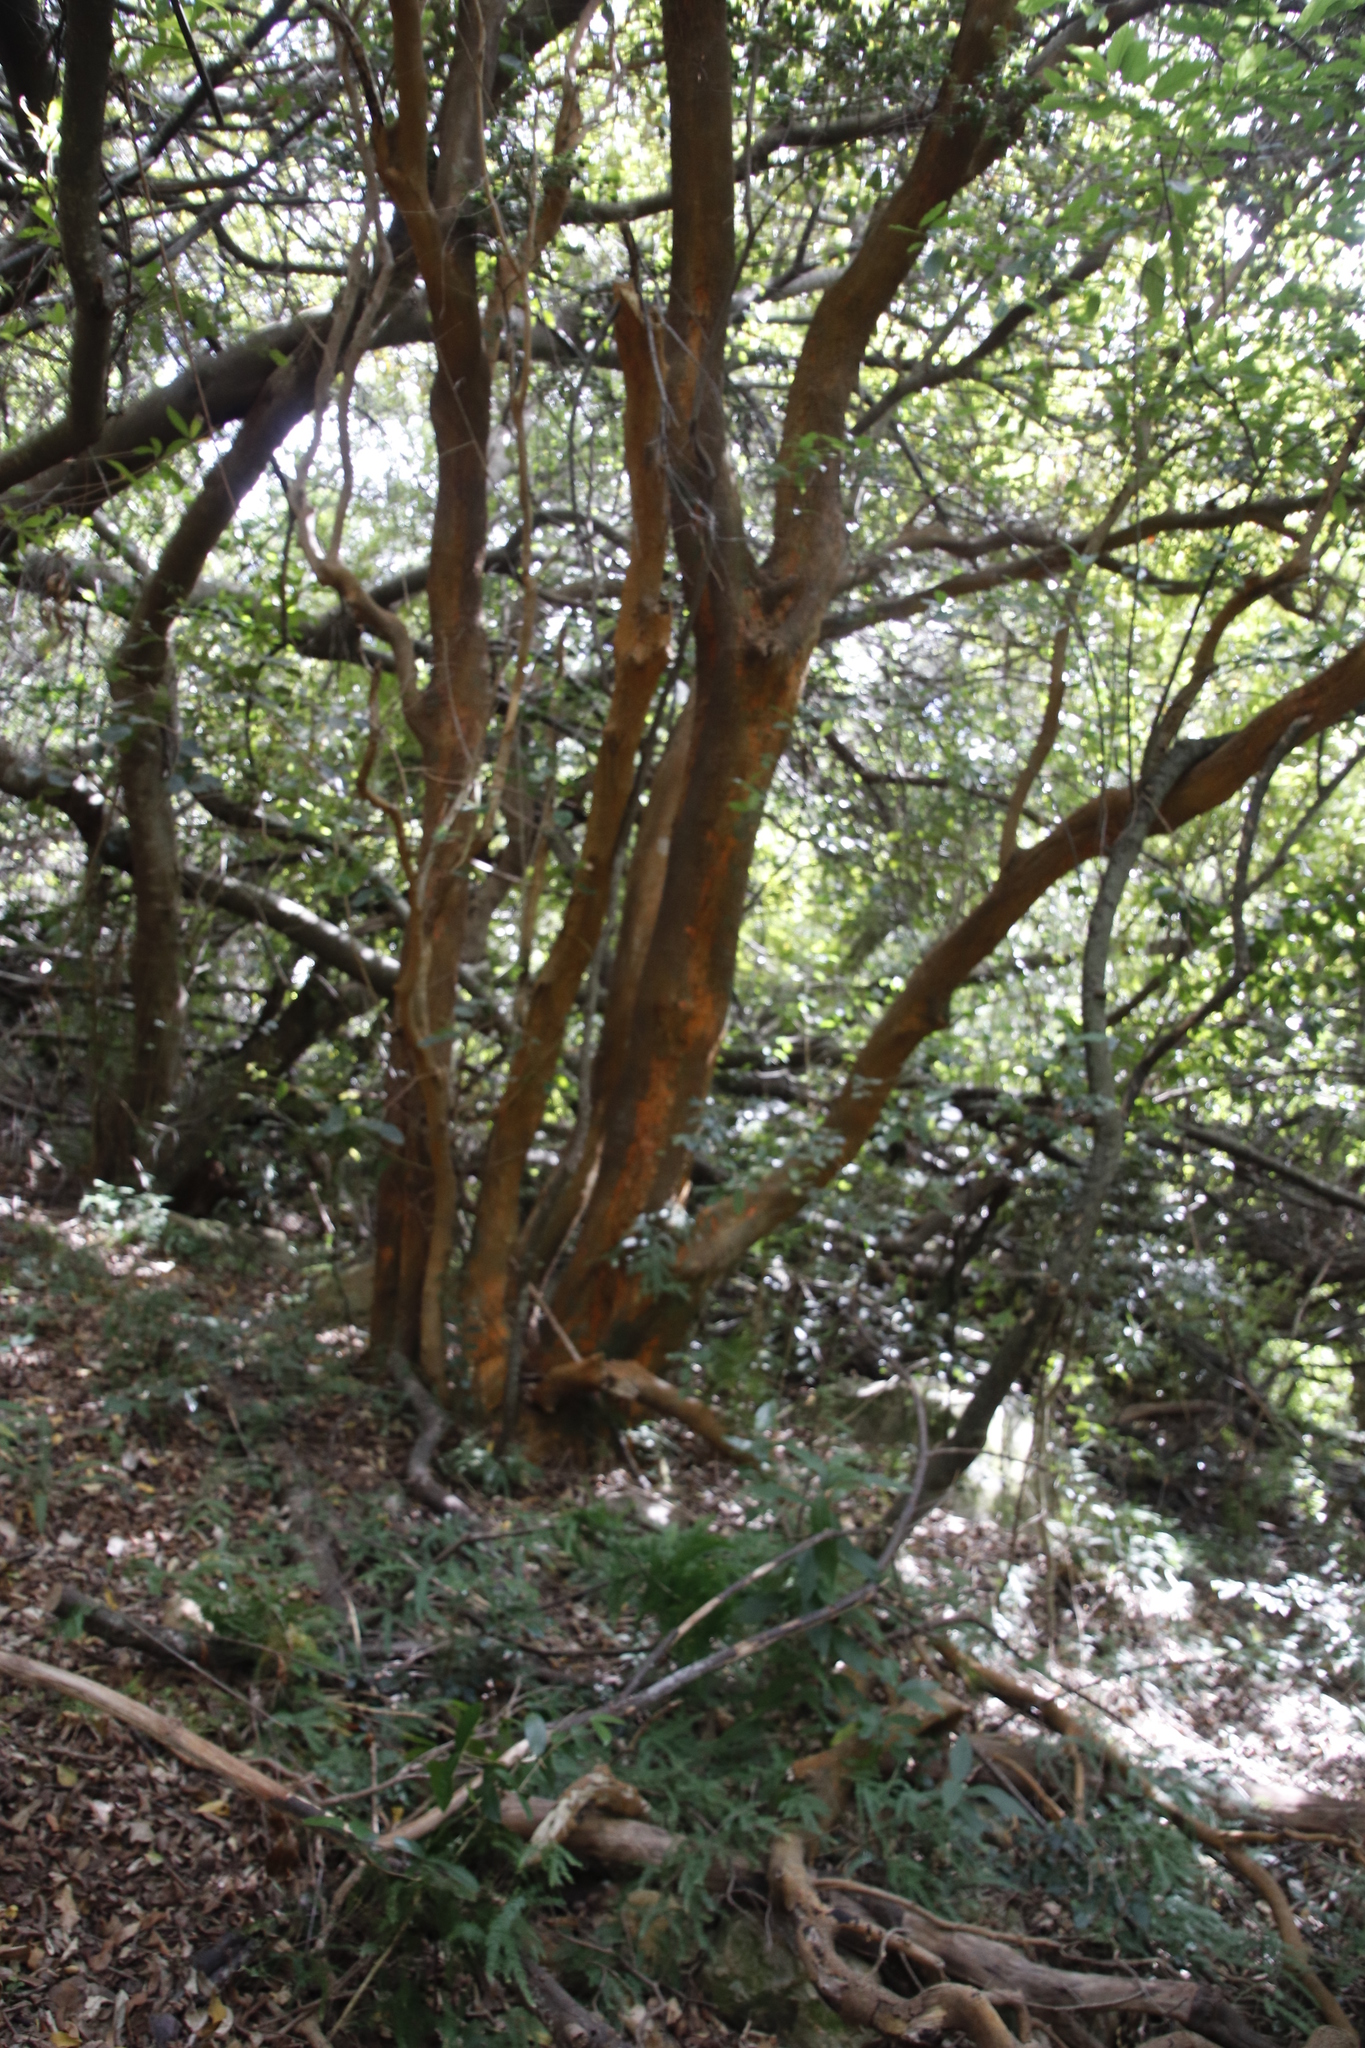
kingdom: Plantae
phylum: Tracheophyta
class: Magnoliopsida
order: Celastrales
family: Celastraceae
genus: Cassine
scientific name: Cassine peragua
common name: Cape saffron
